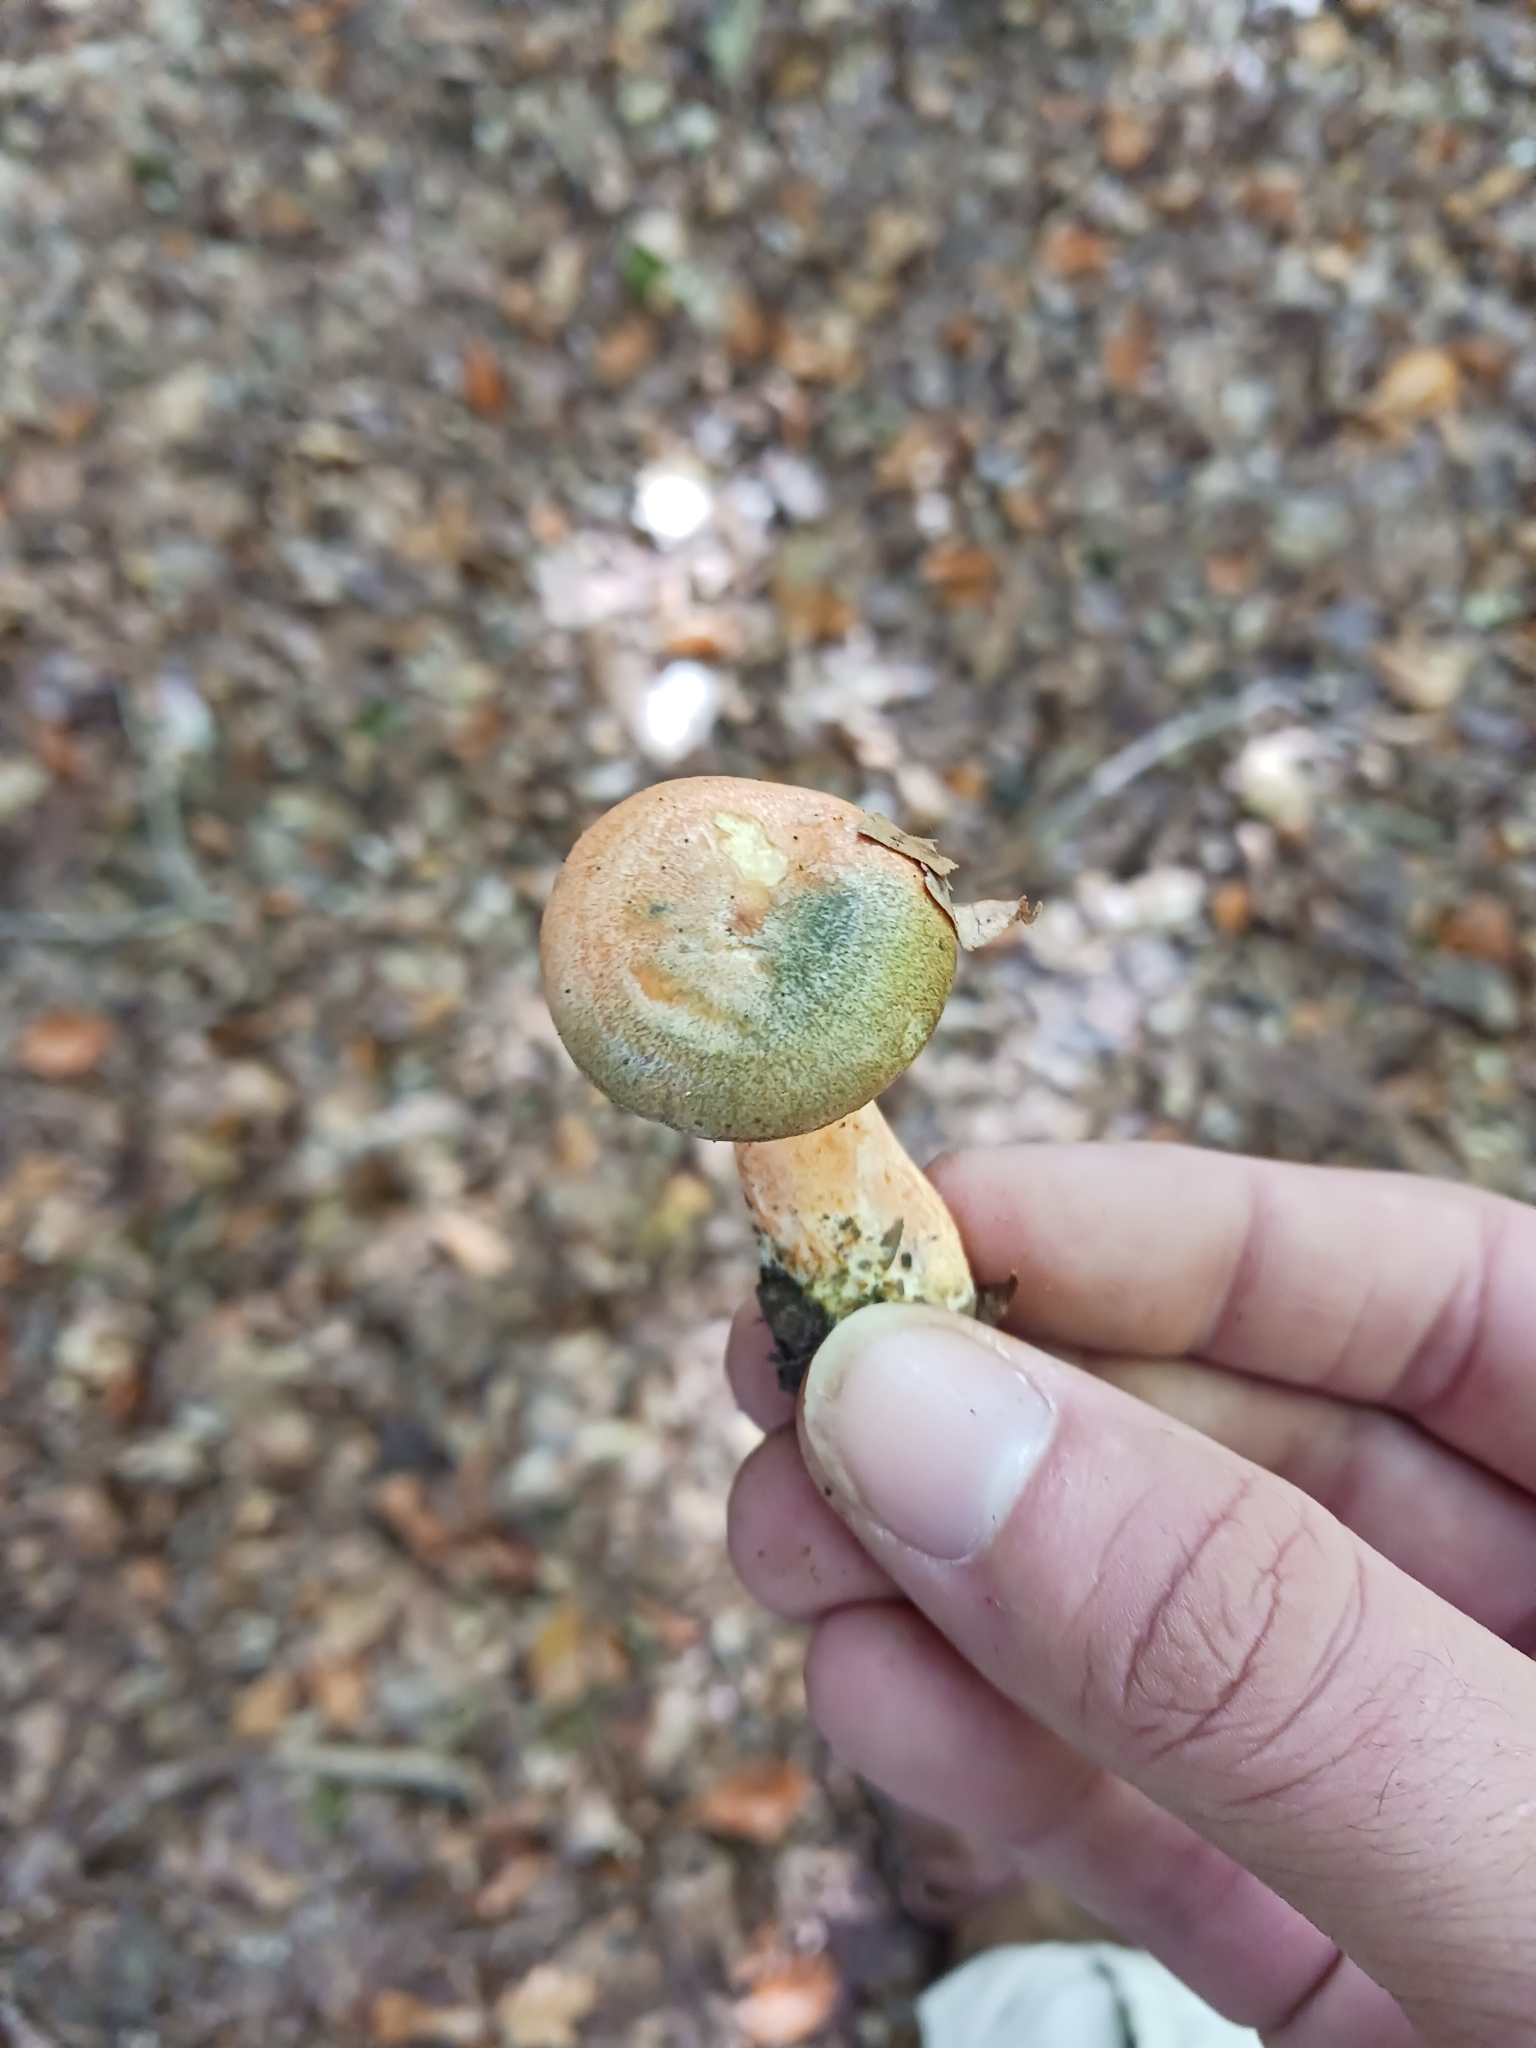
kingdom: Fungi
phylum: Basidiomycota
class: Agaricomycetes
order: Russulales
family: Russulaceae
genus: Lactarius
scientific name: Lactarius deterrimus
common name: False saffron milkcap
